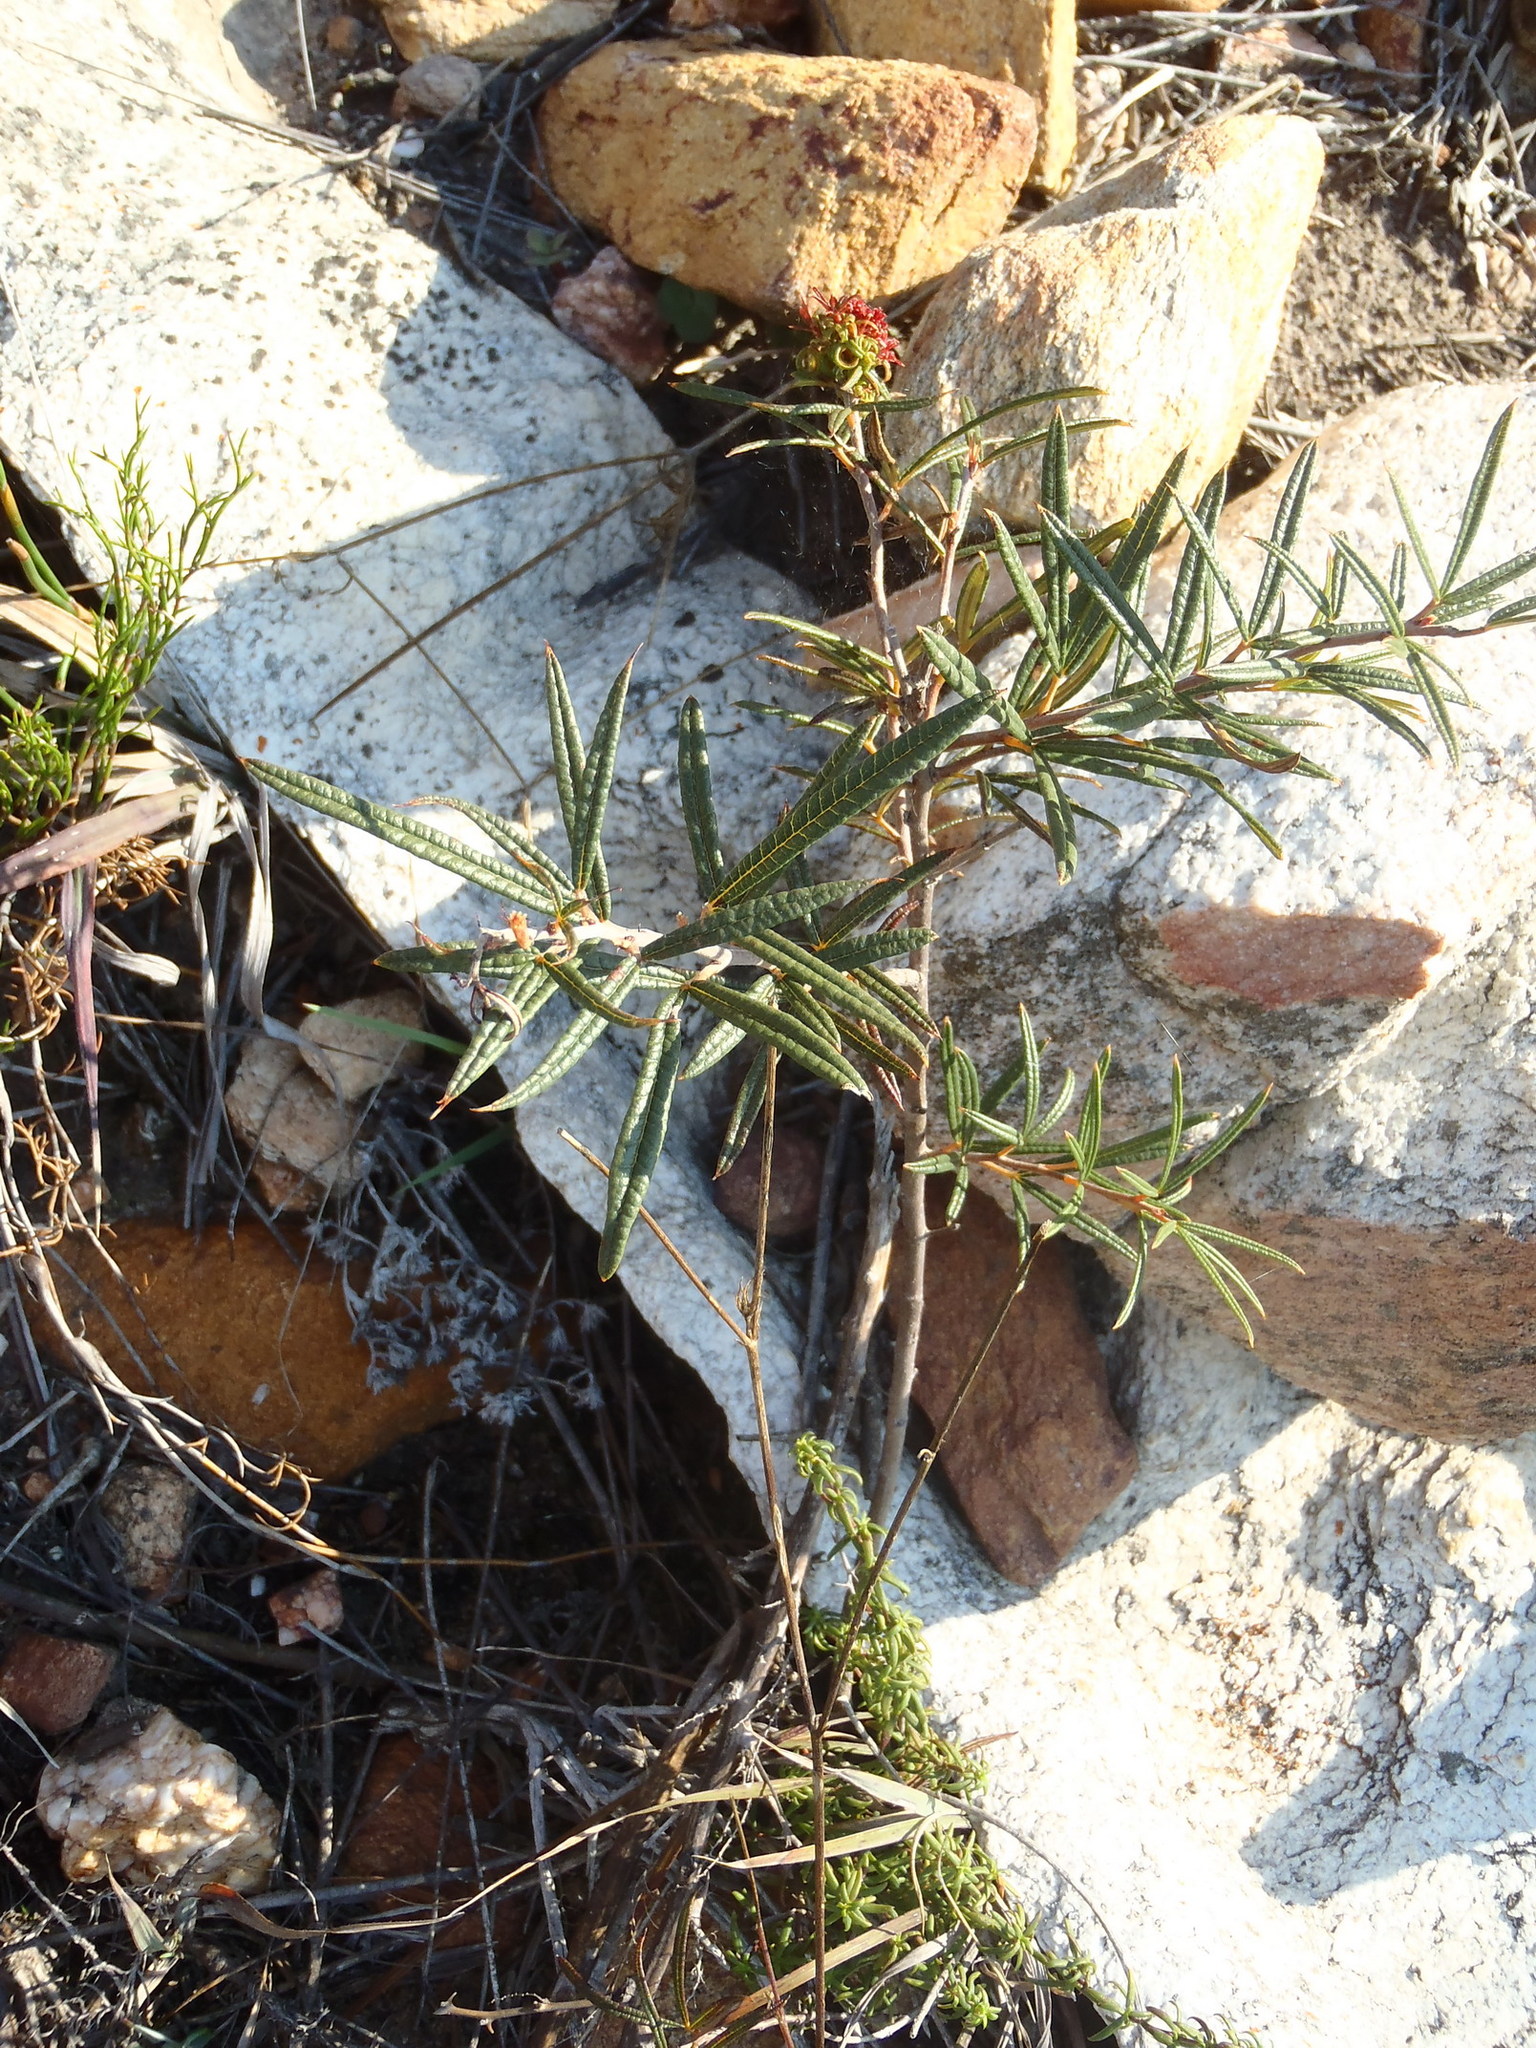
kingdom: Plantae
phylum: Tracheophyta
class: Magnoliopsida
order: Sapindales
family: Anacardiaceae
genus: Searsia
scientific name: Searsia rosmarinifolia
